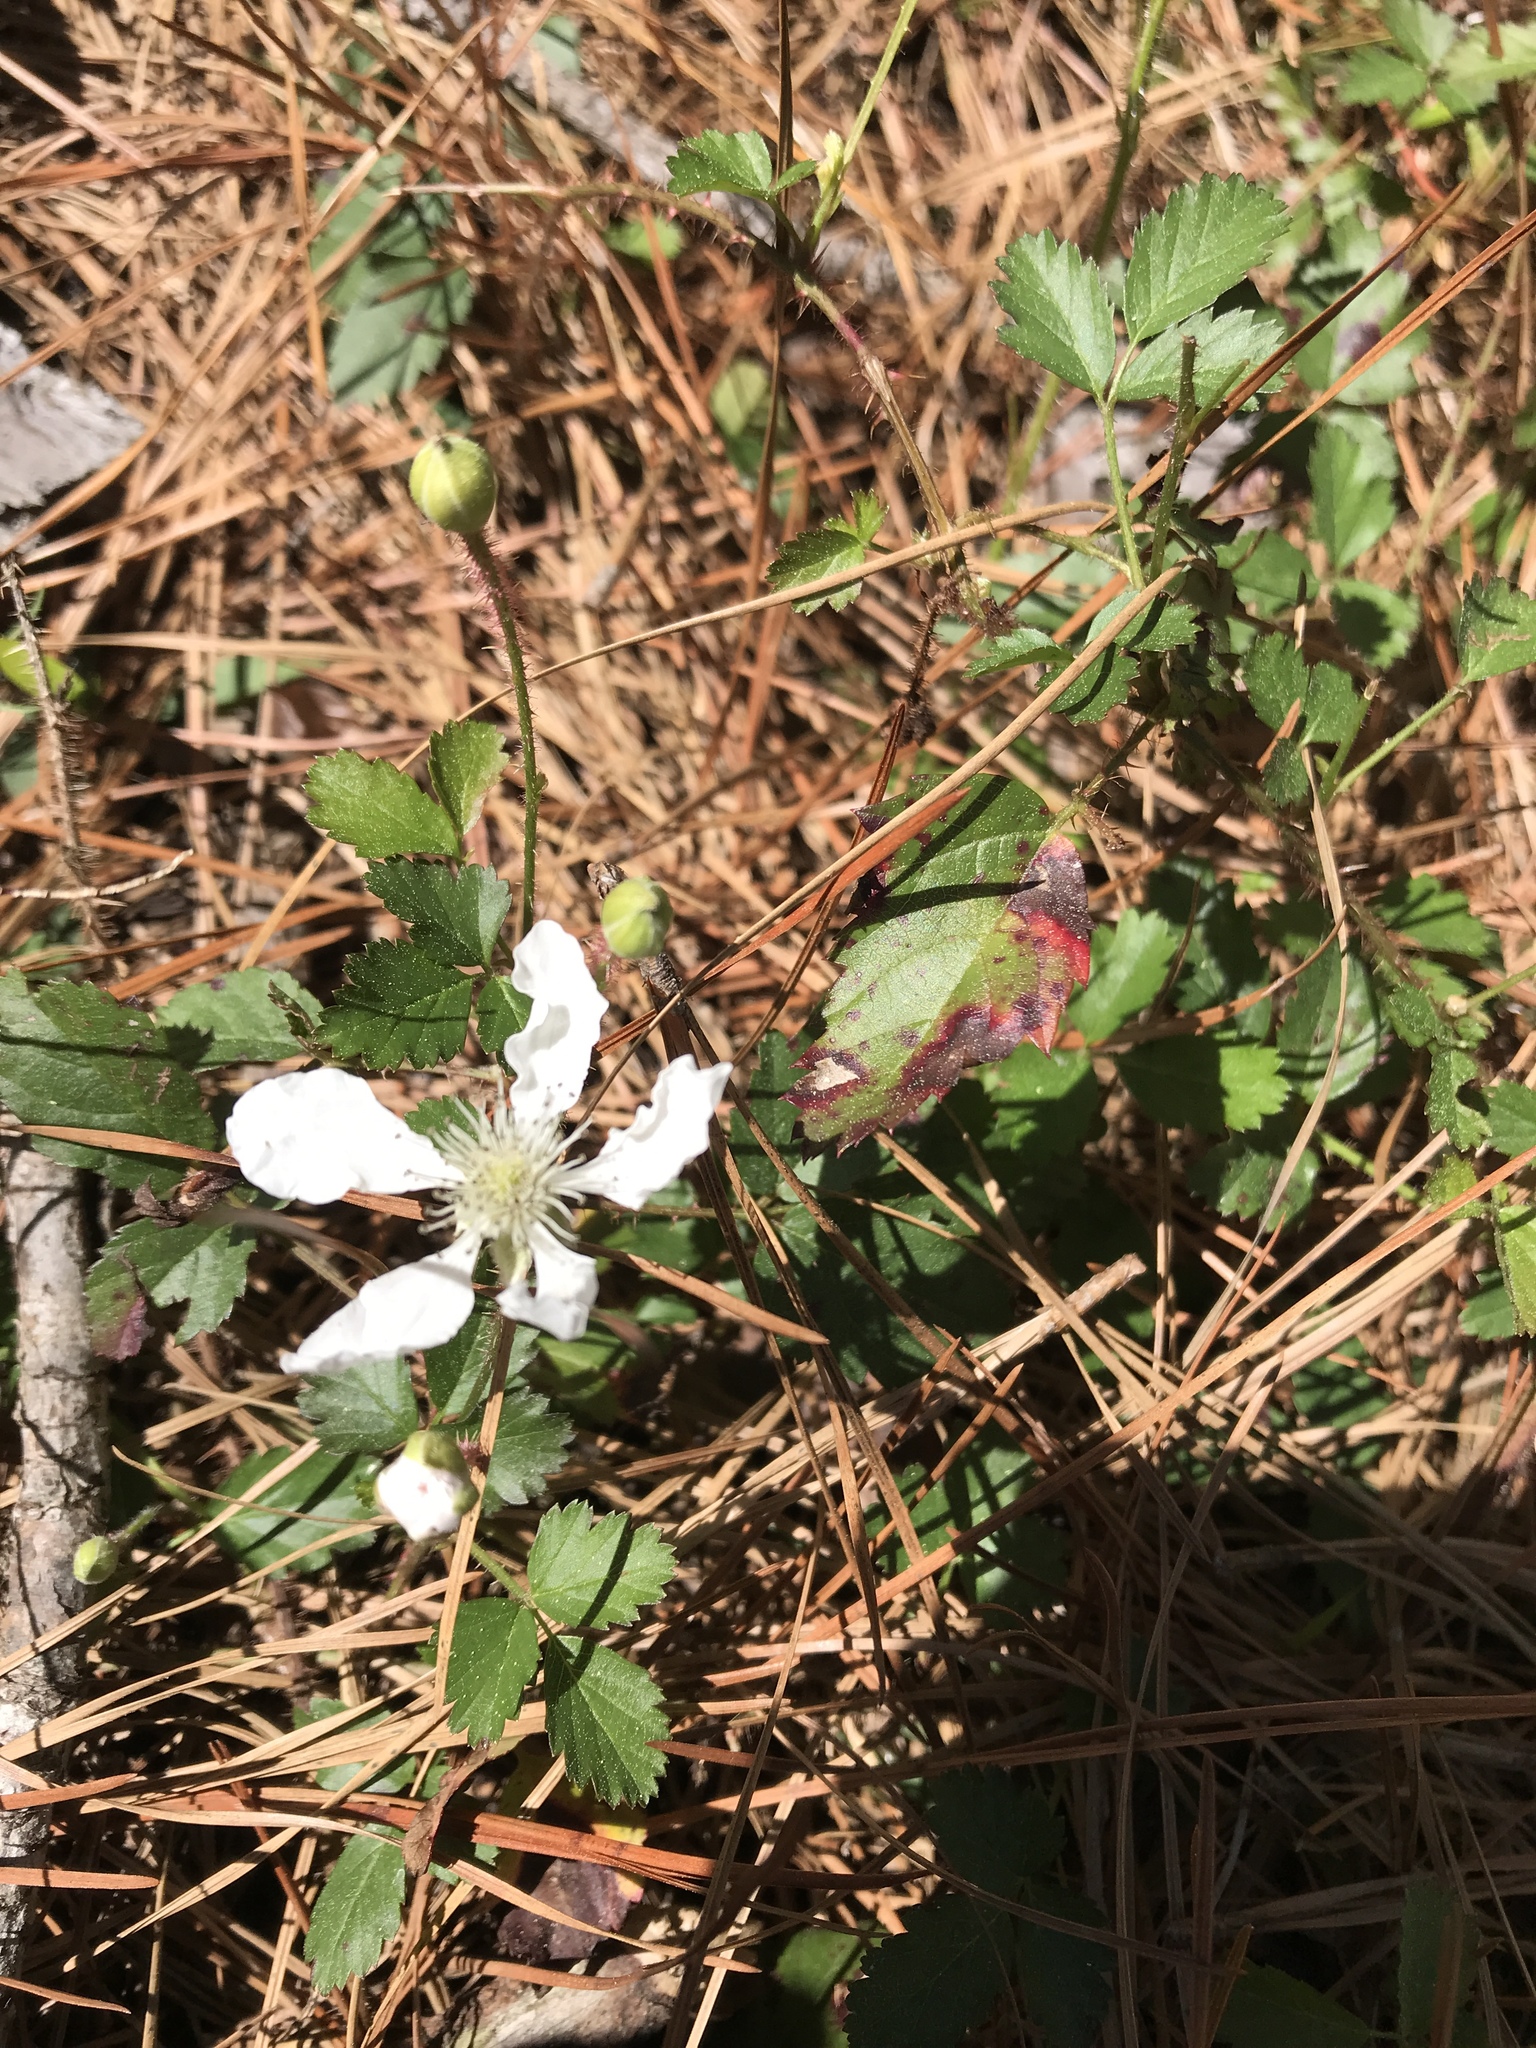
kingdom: Plantae
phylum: Tracheophyta
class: Magnoliopsida
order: Rosales
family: Rosaceae
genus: Rubus
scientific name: Rubus trivialis
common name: Southern dewberry
